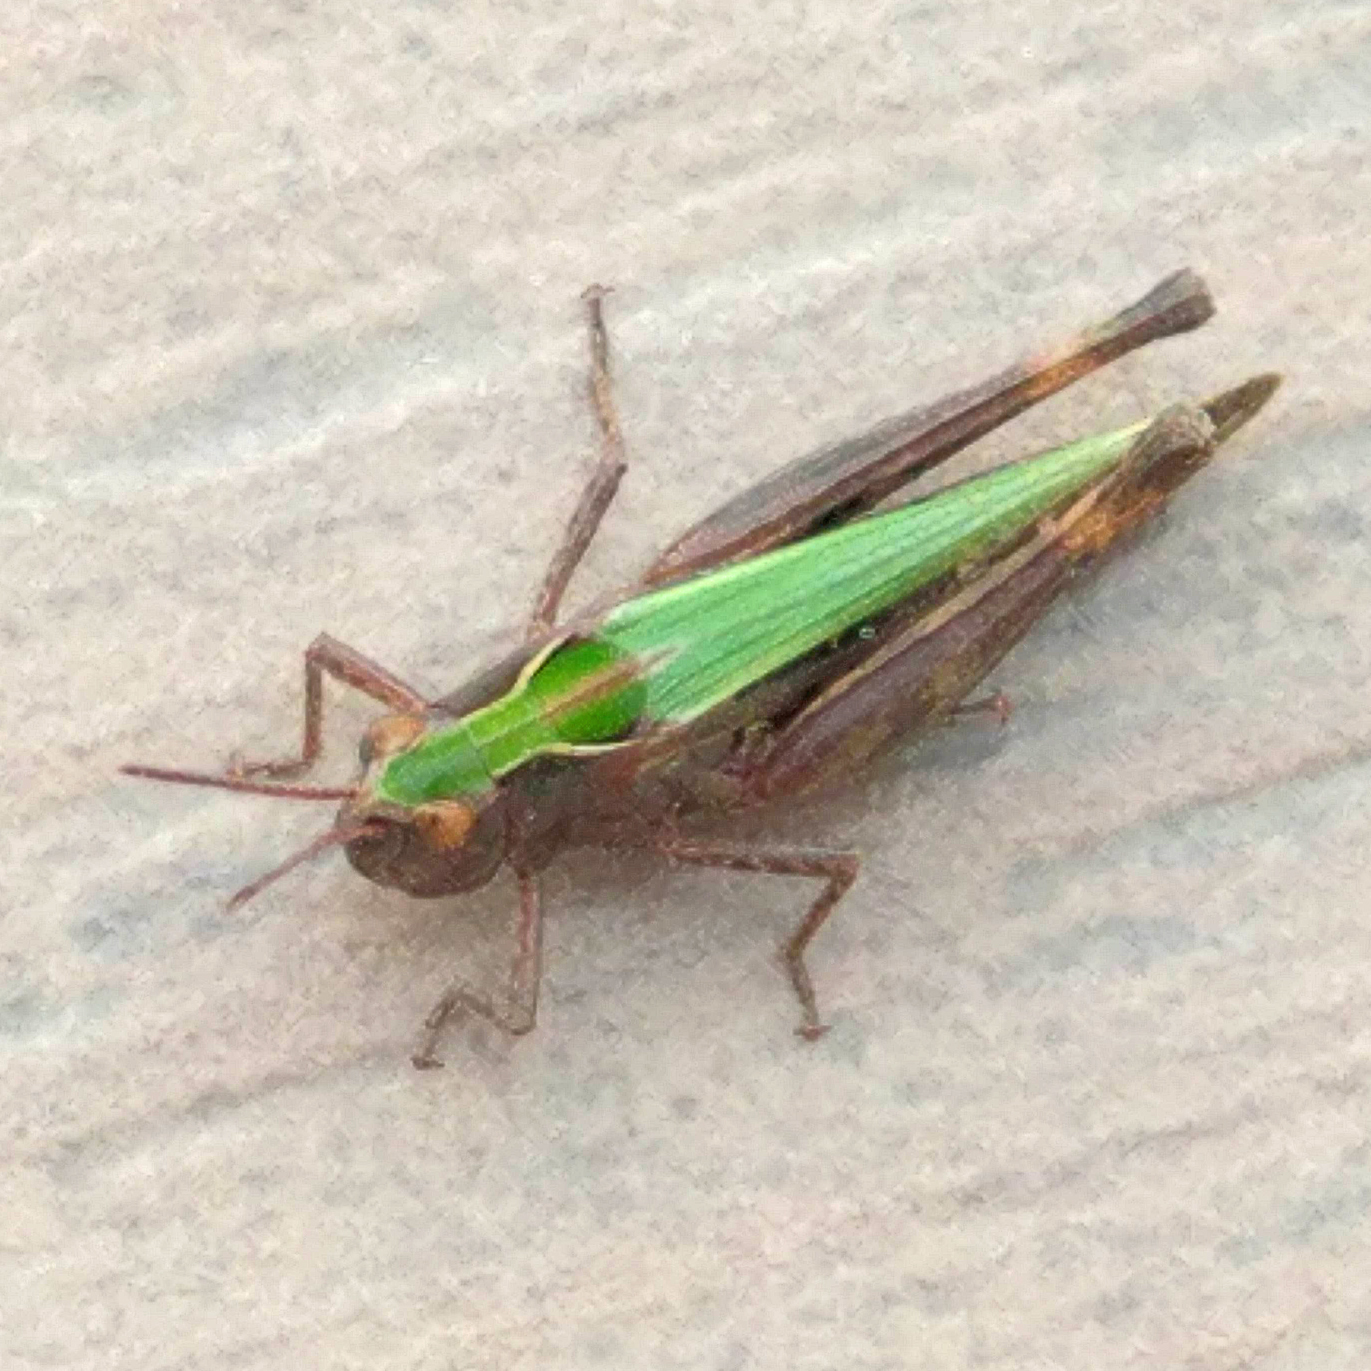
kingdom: Animalia
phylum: Arthropoda
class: Insecta
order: Orthoptera
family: Acrididae
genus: Omocestus
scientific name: Omocestus rufipes
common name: Woodland grasshopper
